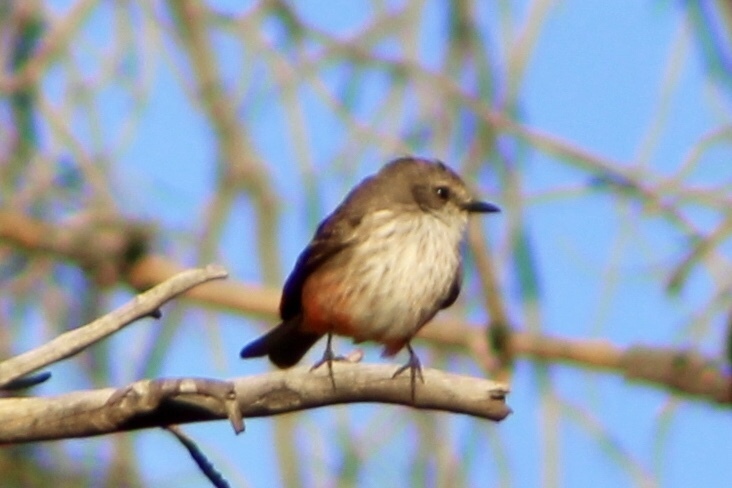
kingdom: Animalia
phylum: Chordata
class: Aves
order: Passeriformes
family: Tyrannidae
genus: Pyrocephalus
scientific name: Pyrocephalus rubinus
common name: Vermilion flycatcher
